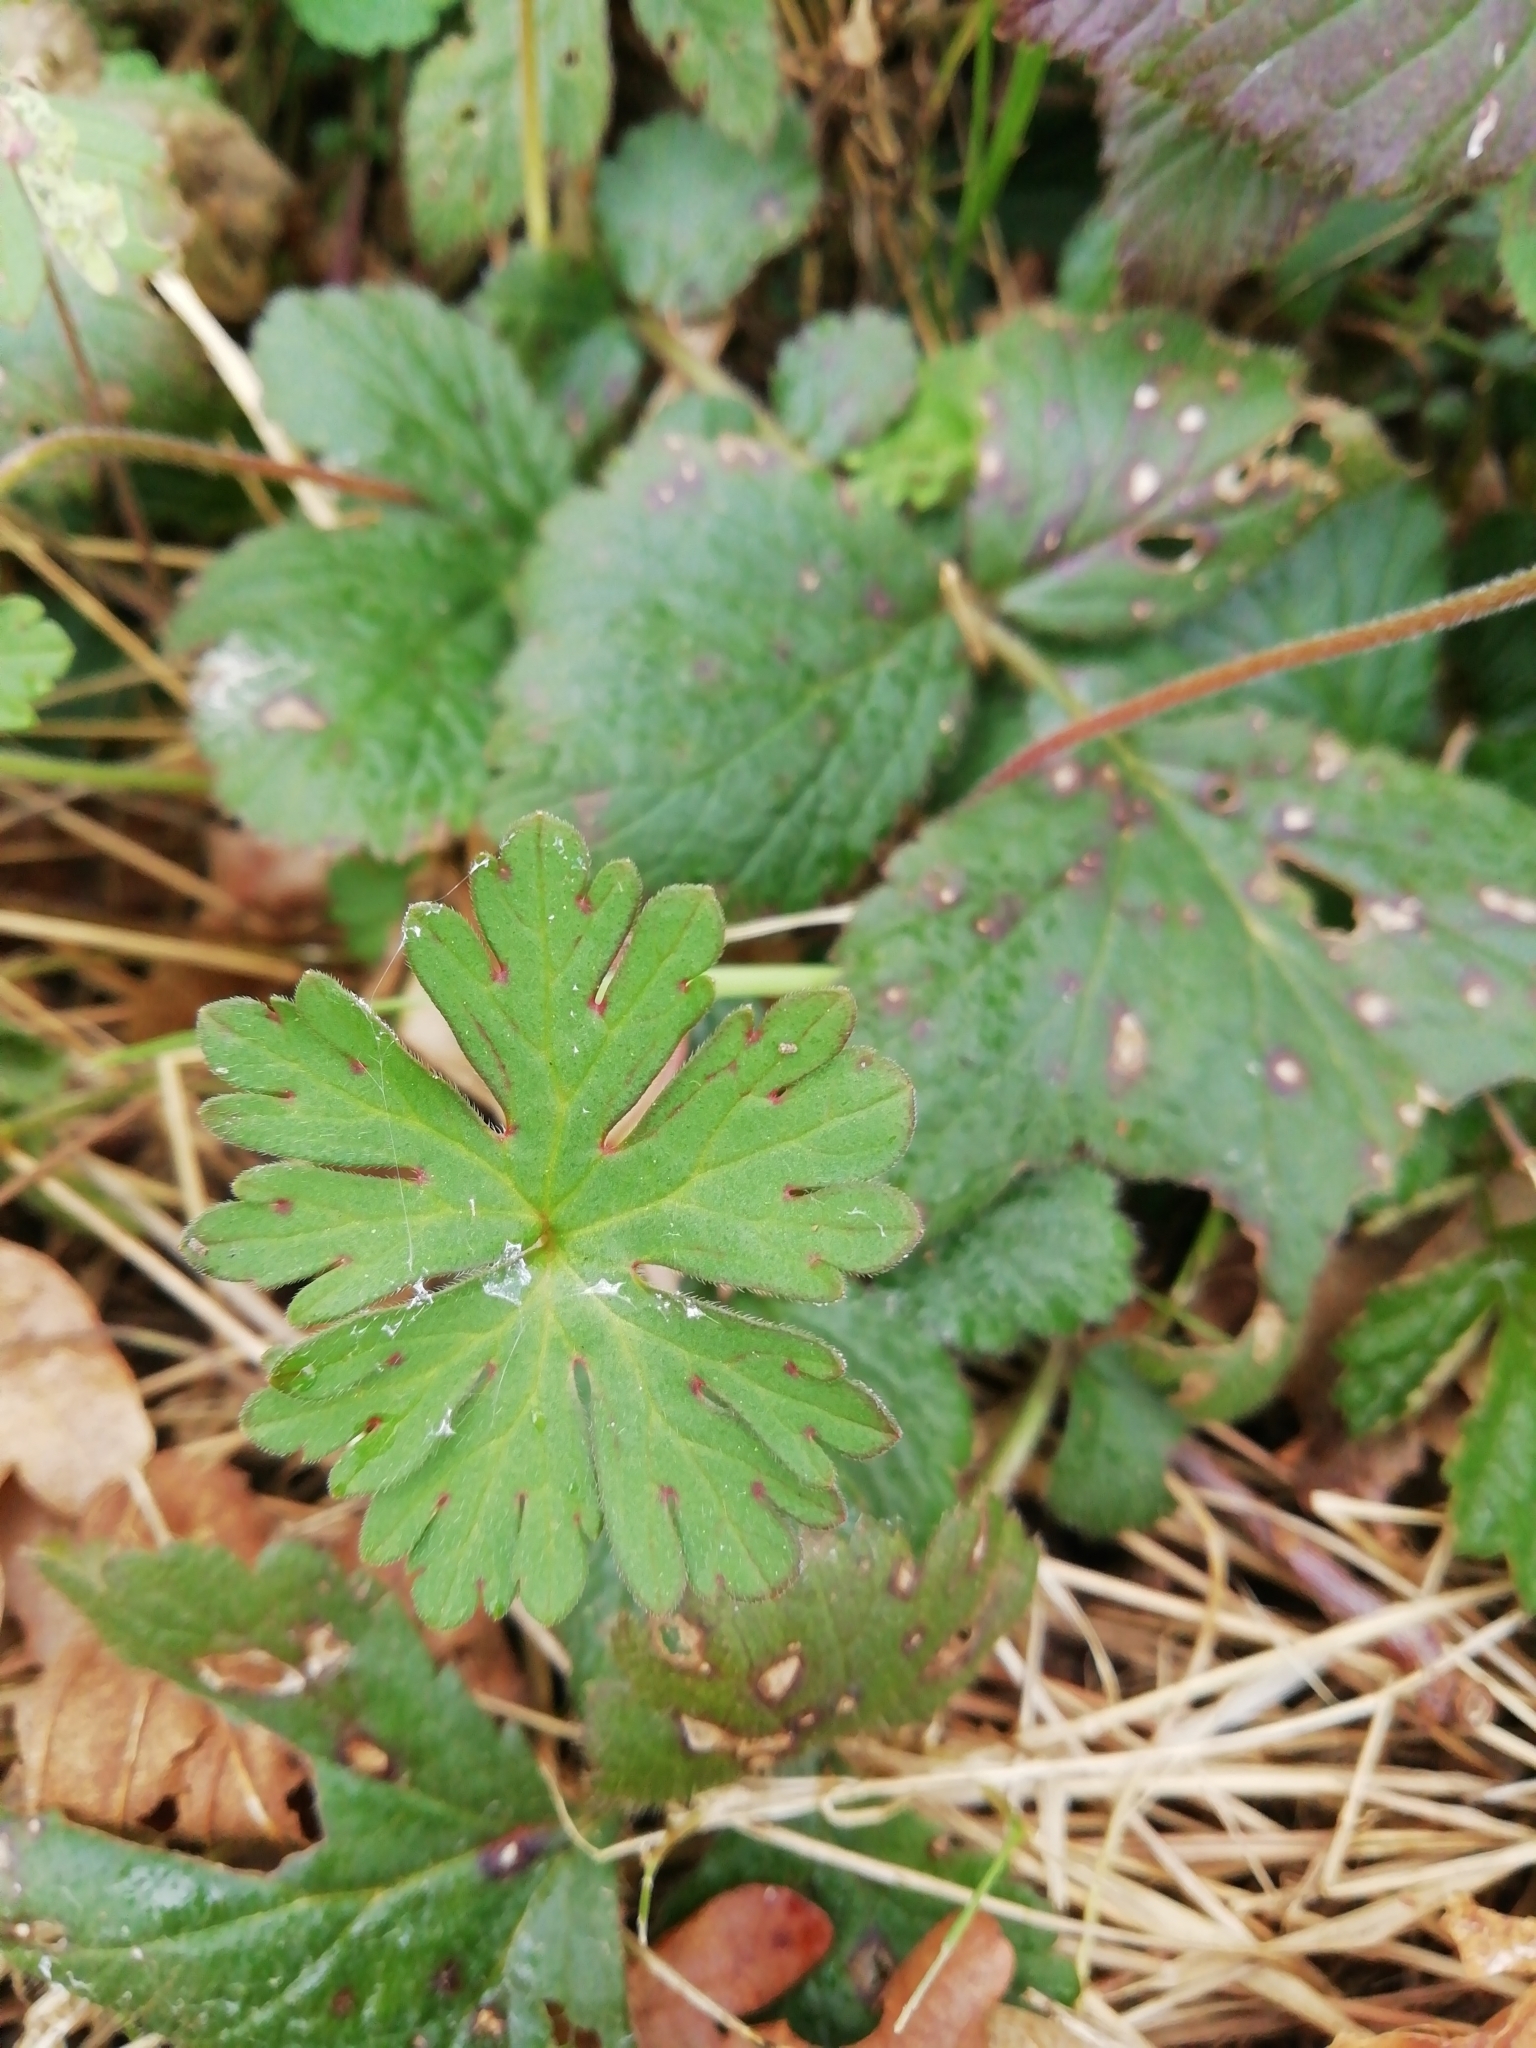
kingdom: Plantae
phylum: Tracheophyta
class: Magnoliopsida
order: Geraniales
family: Geraniaceae
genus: Geranium
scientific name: Geranium dissectum
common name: Cut-leaved crane's-bill
